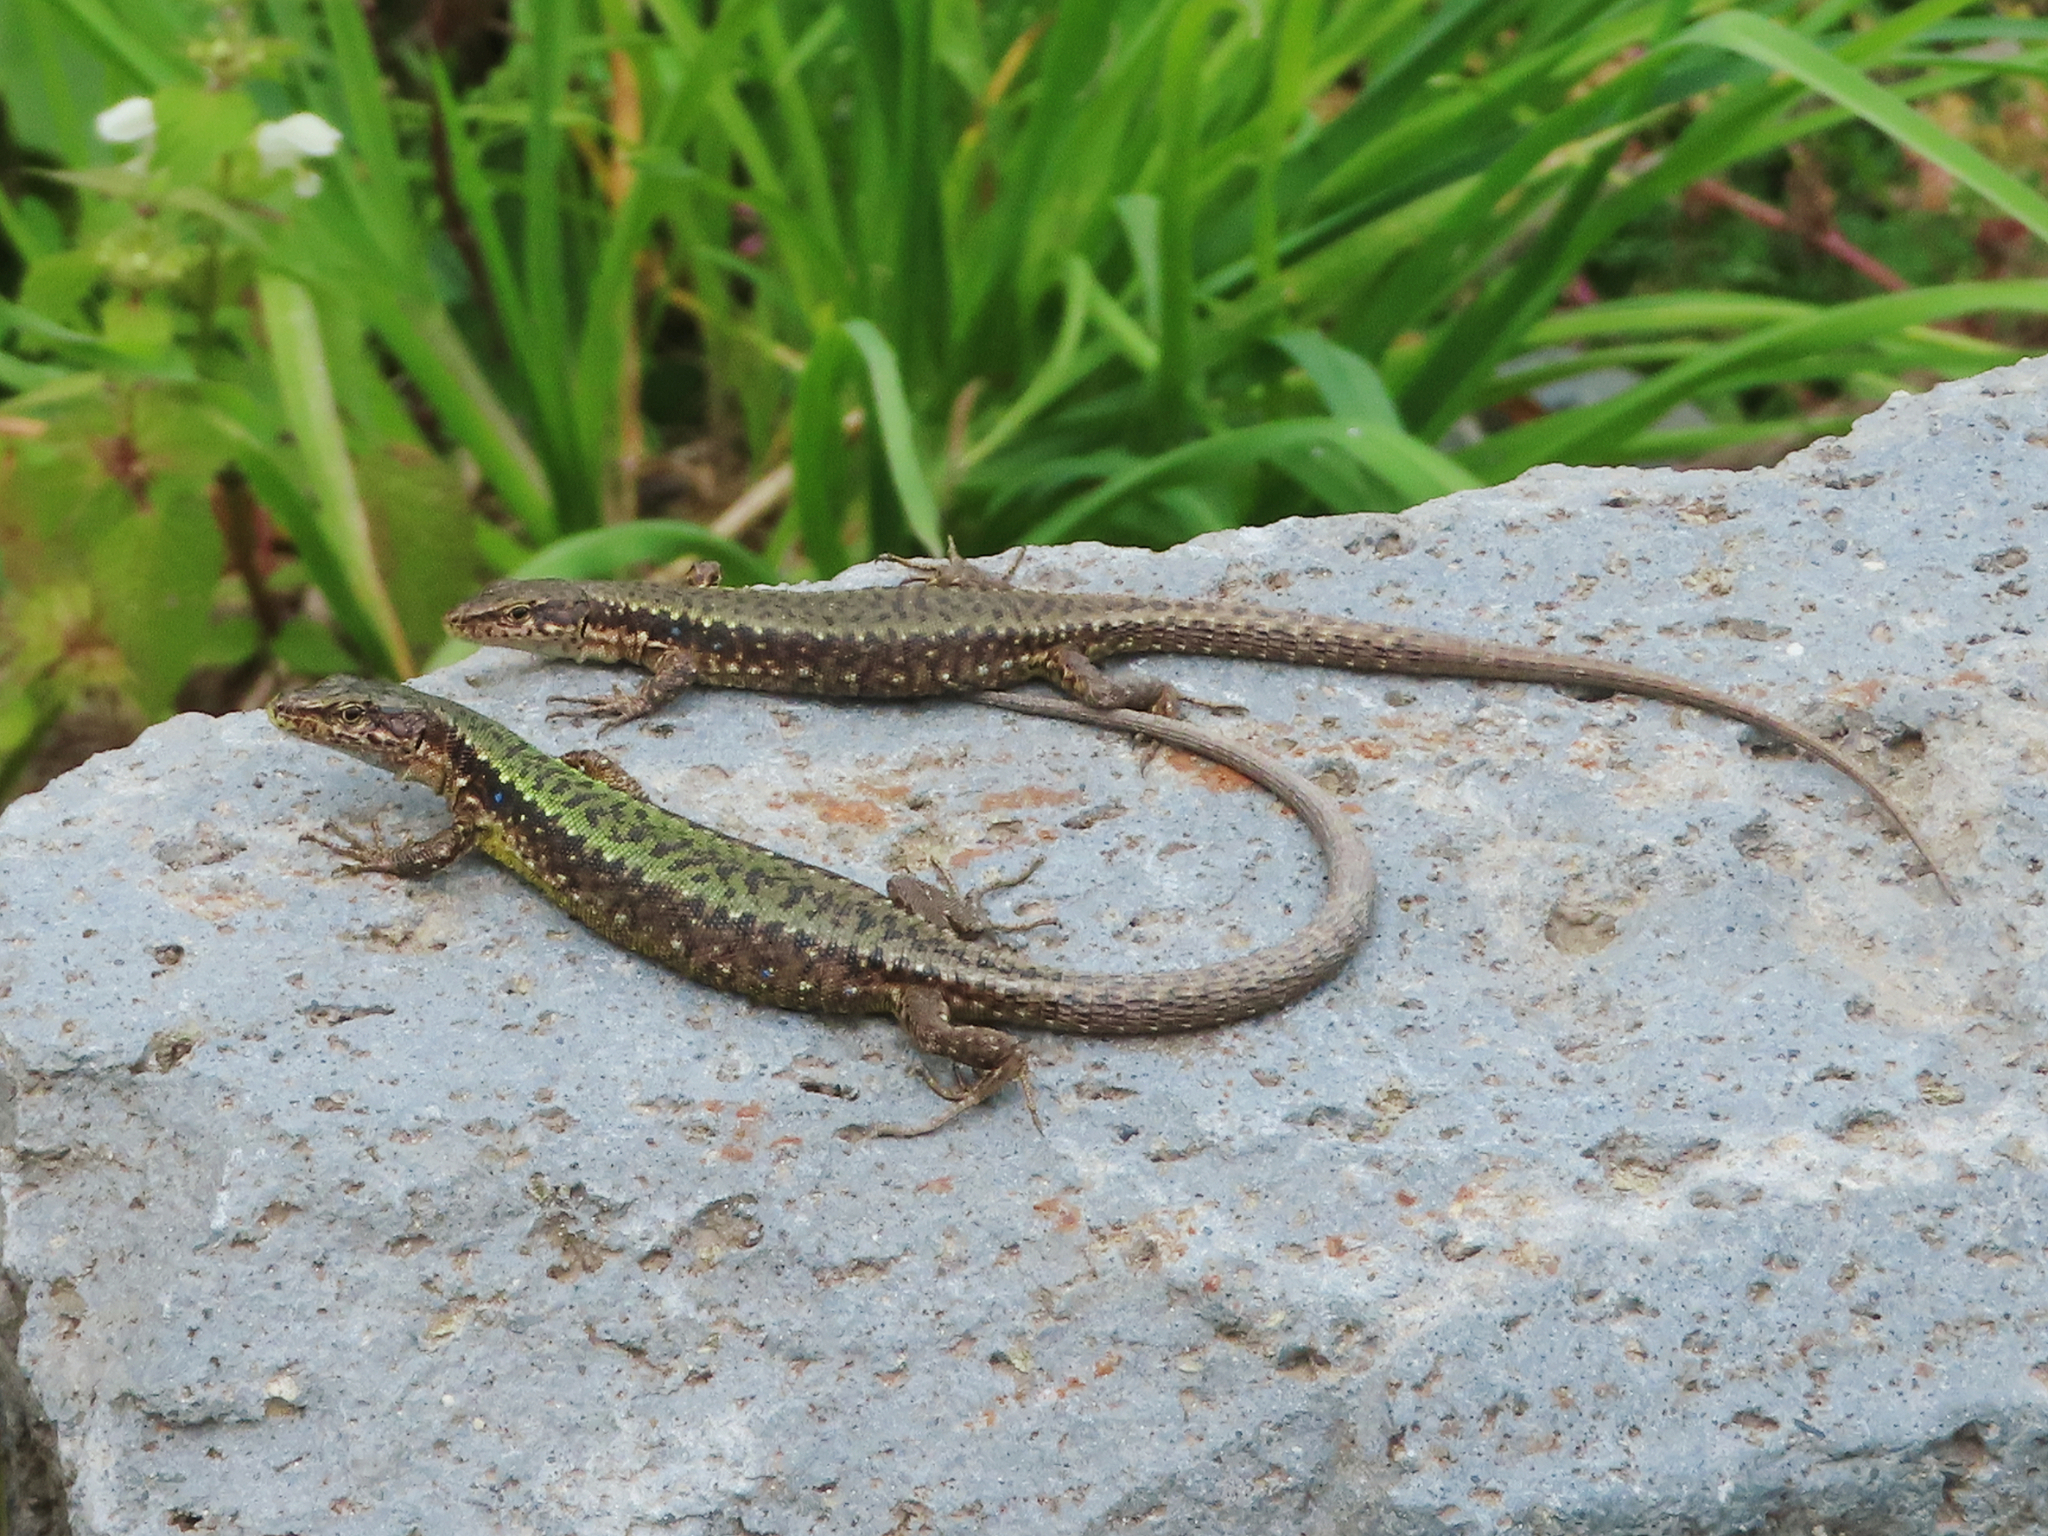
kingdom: Animalia
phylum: Chordata
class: Squamata
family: Lacertidae
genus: Darevskia
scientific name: Darevskia armeniaca
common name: Armenian lizard
